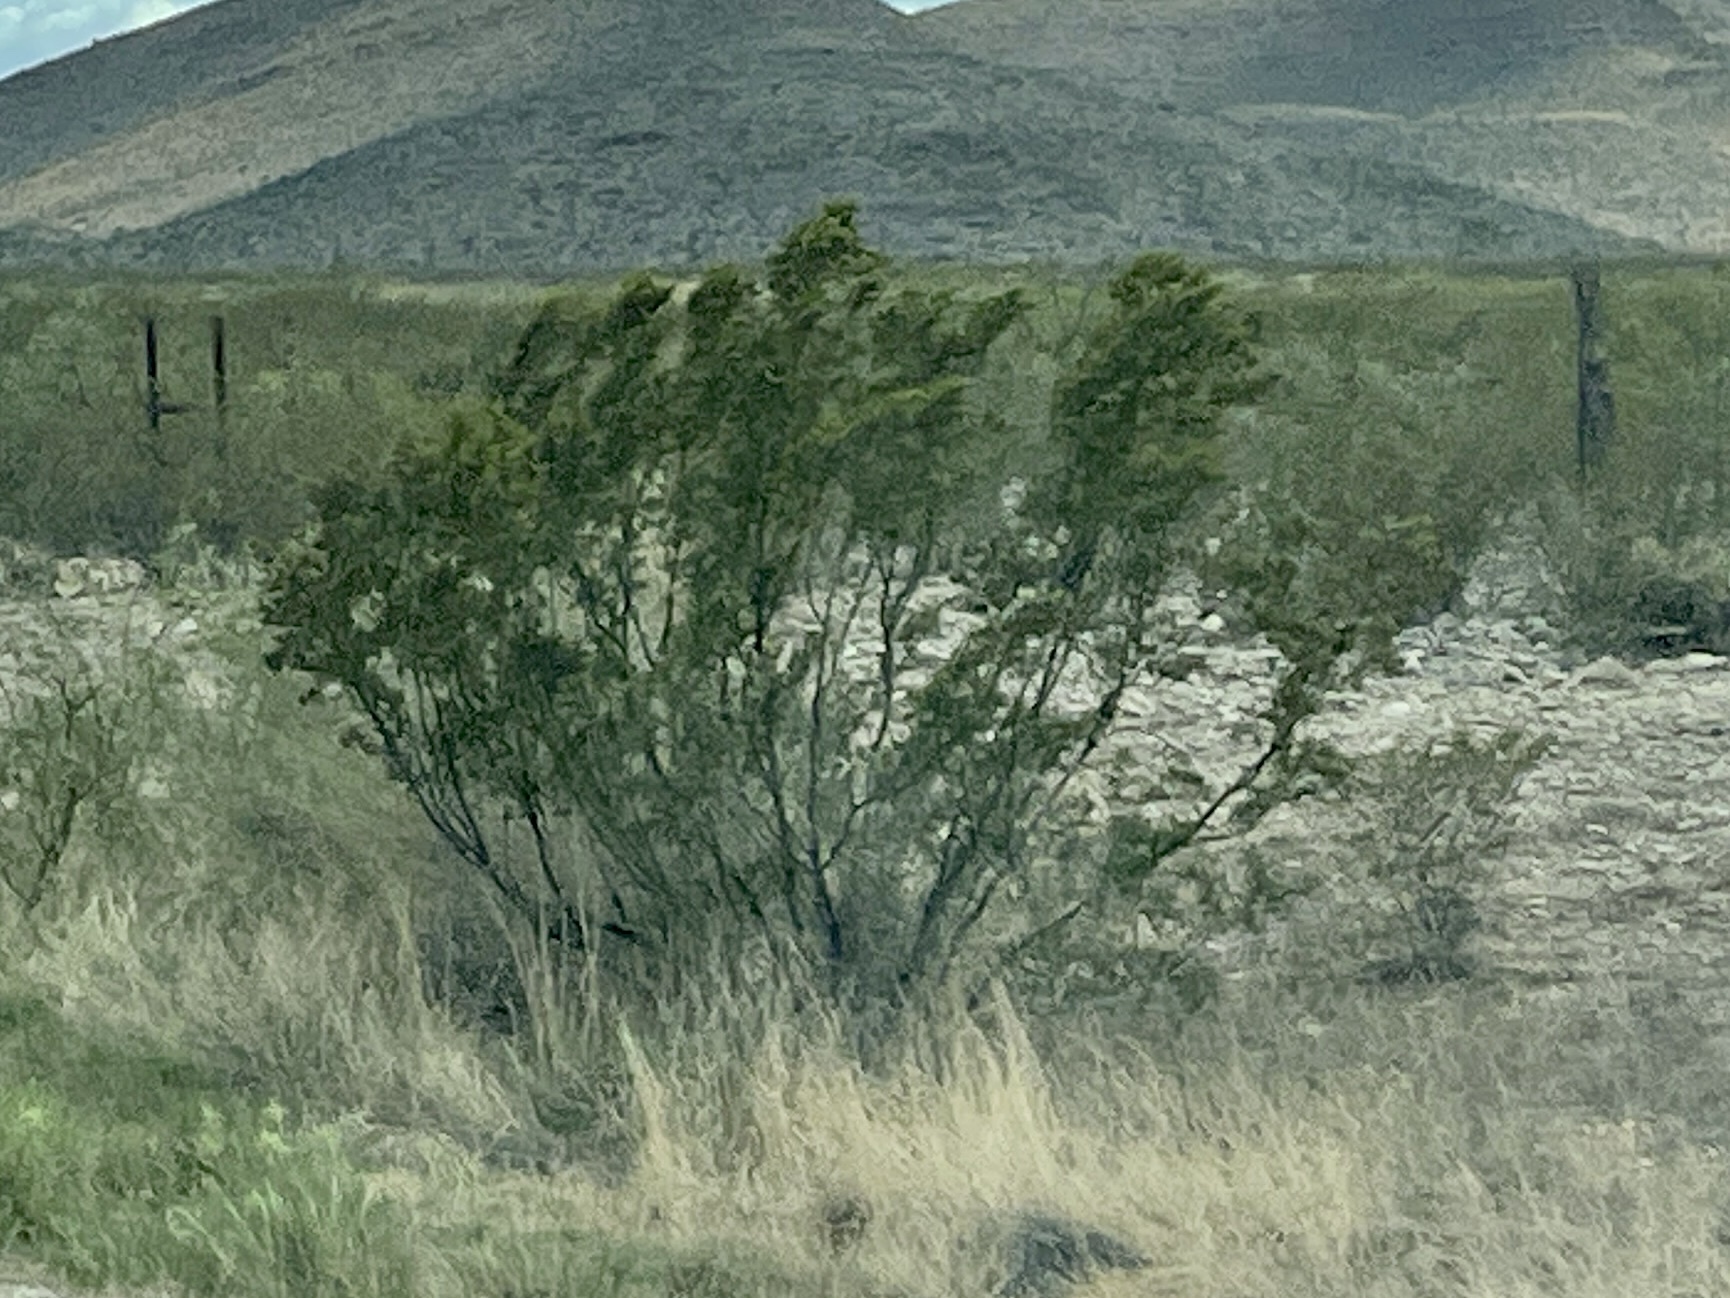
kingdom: Plantae
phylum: Tracheophyta
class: Magnoliopsida
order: Zygophyllales
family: Zygophyllaceae
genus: Larrea
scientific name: Larrea tridentata
